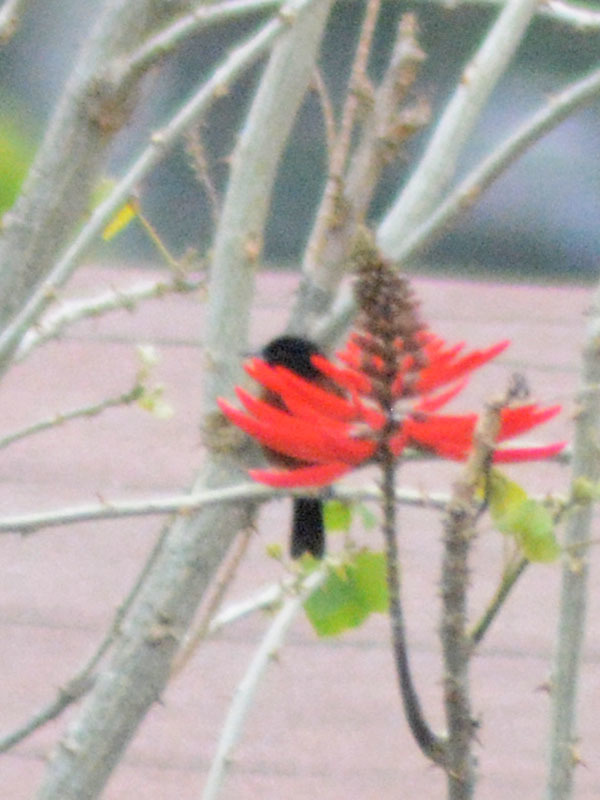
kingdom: Animalia
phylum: Chordata
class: Aves
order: Passeriformes
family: Thraupidae
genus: Diglossa
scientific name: Diglossa baritula
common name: Cinnamon-bellied flowerpiercer
